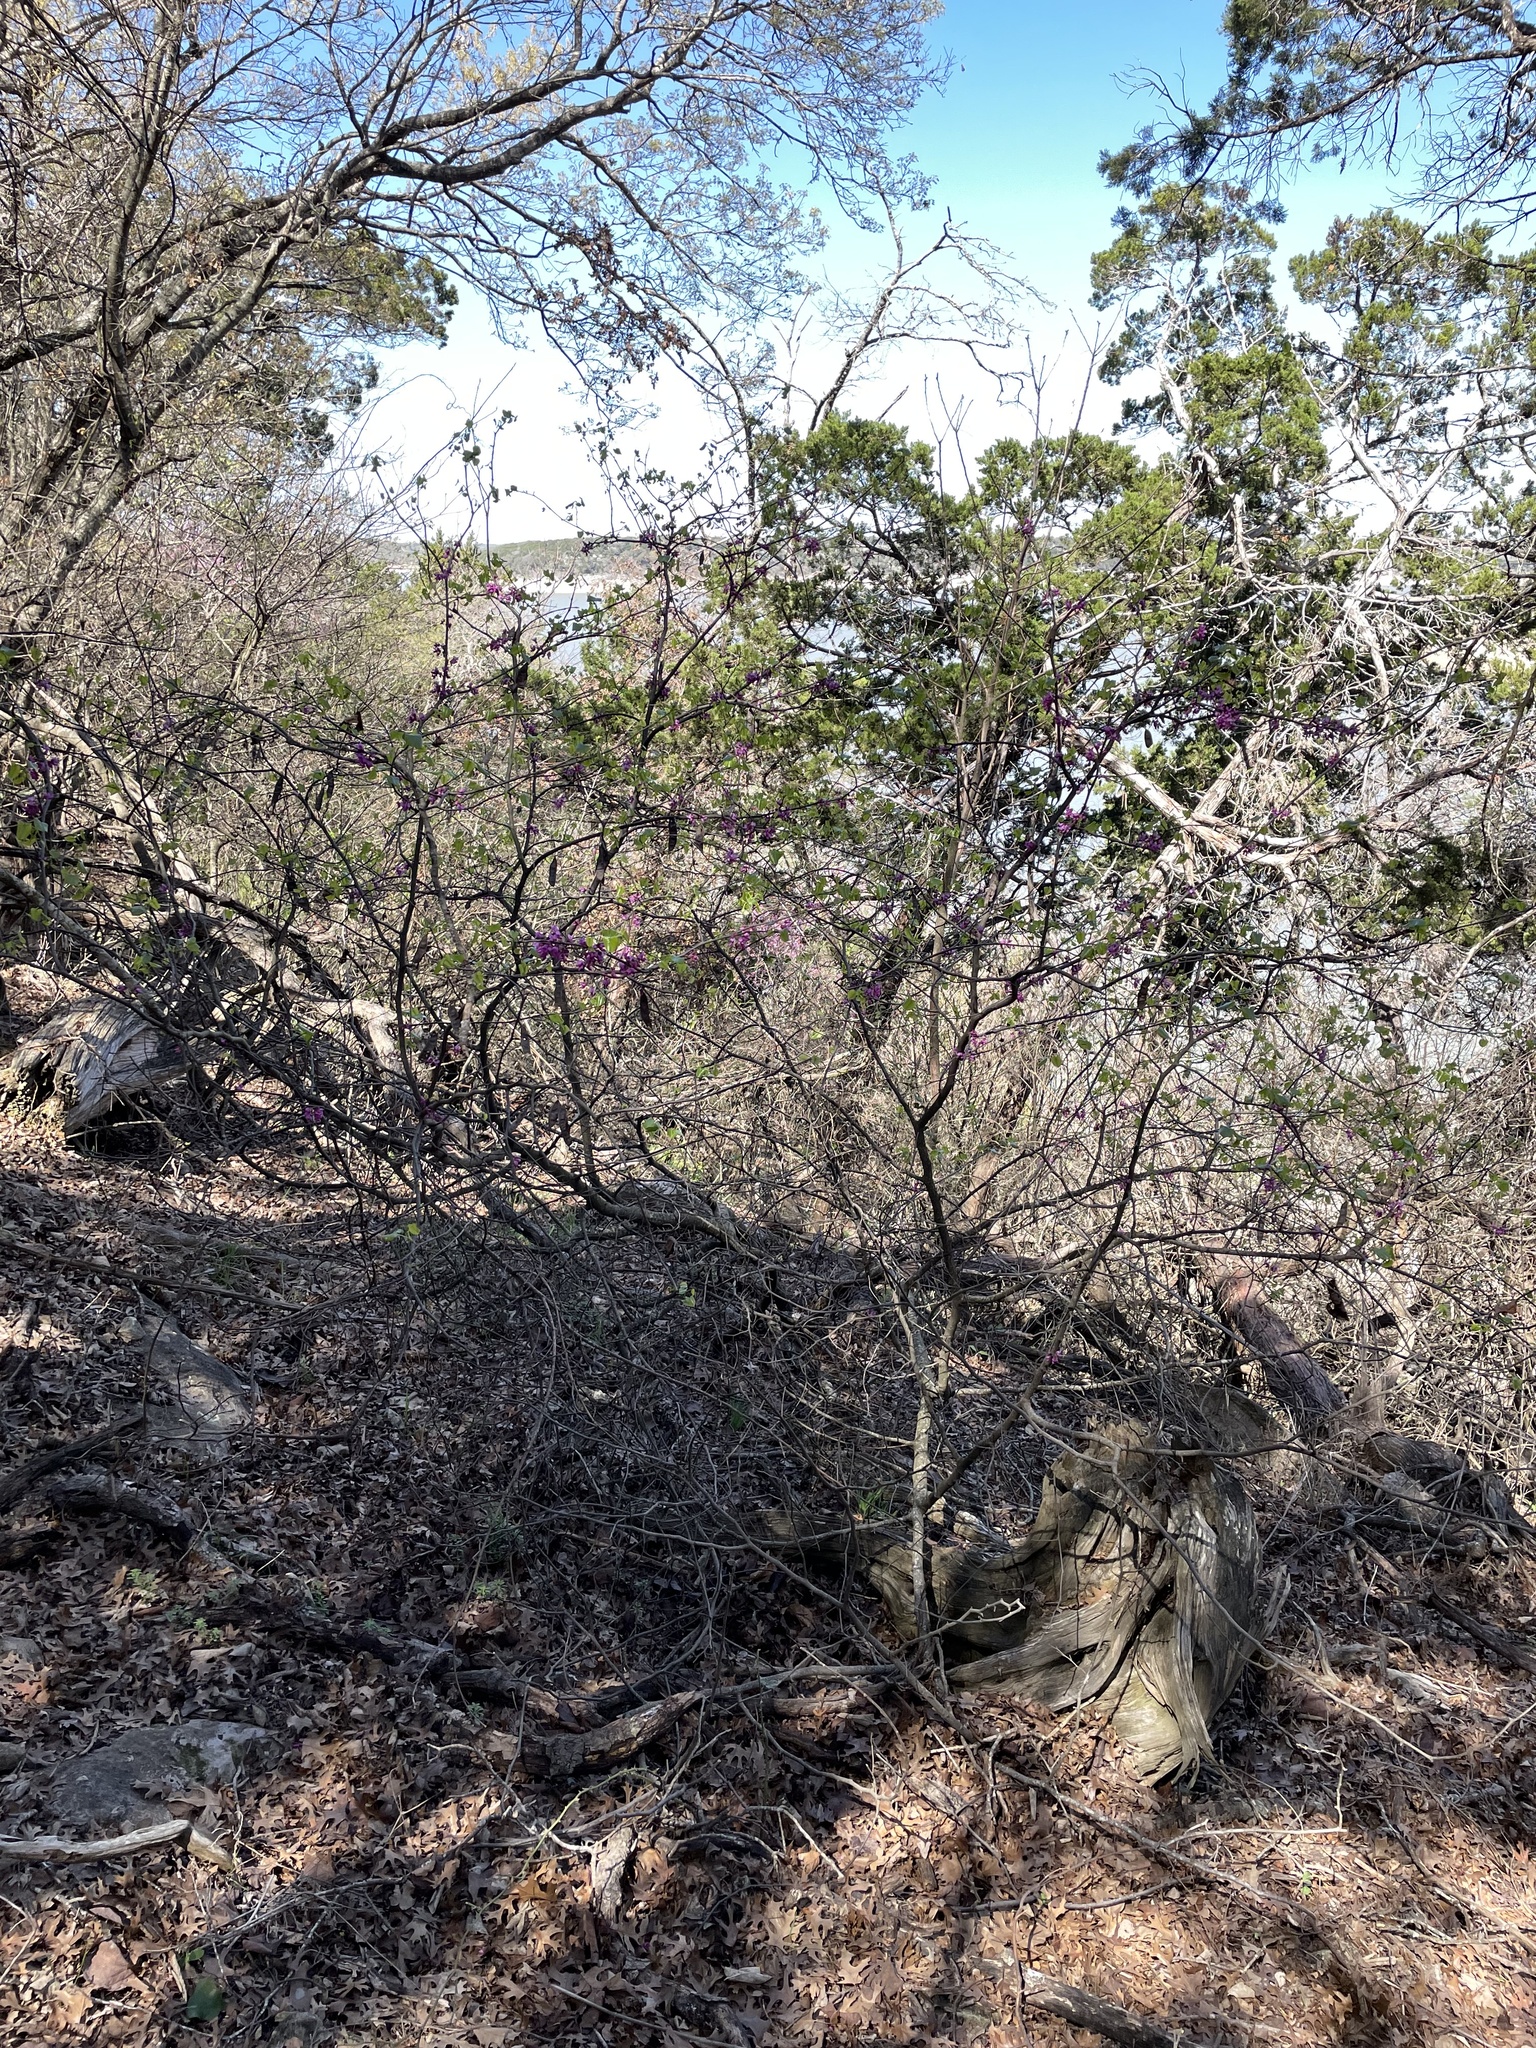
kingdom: Plantae
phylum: Tracheophyta
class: Magnoliopsida
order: Fabales
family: Fabaceae
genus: Cercis
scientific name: Cercis canadensis
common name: Eastern redbud
